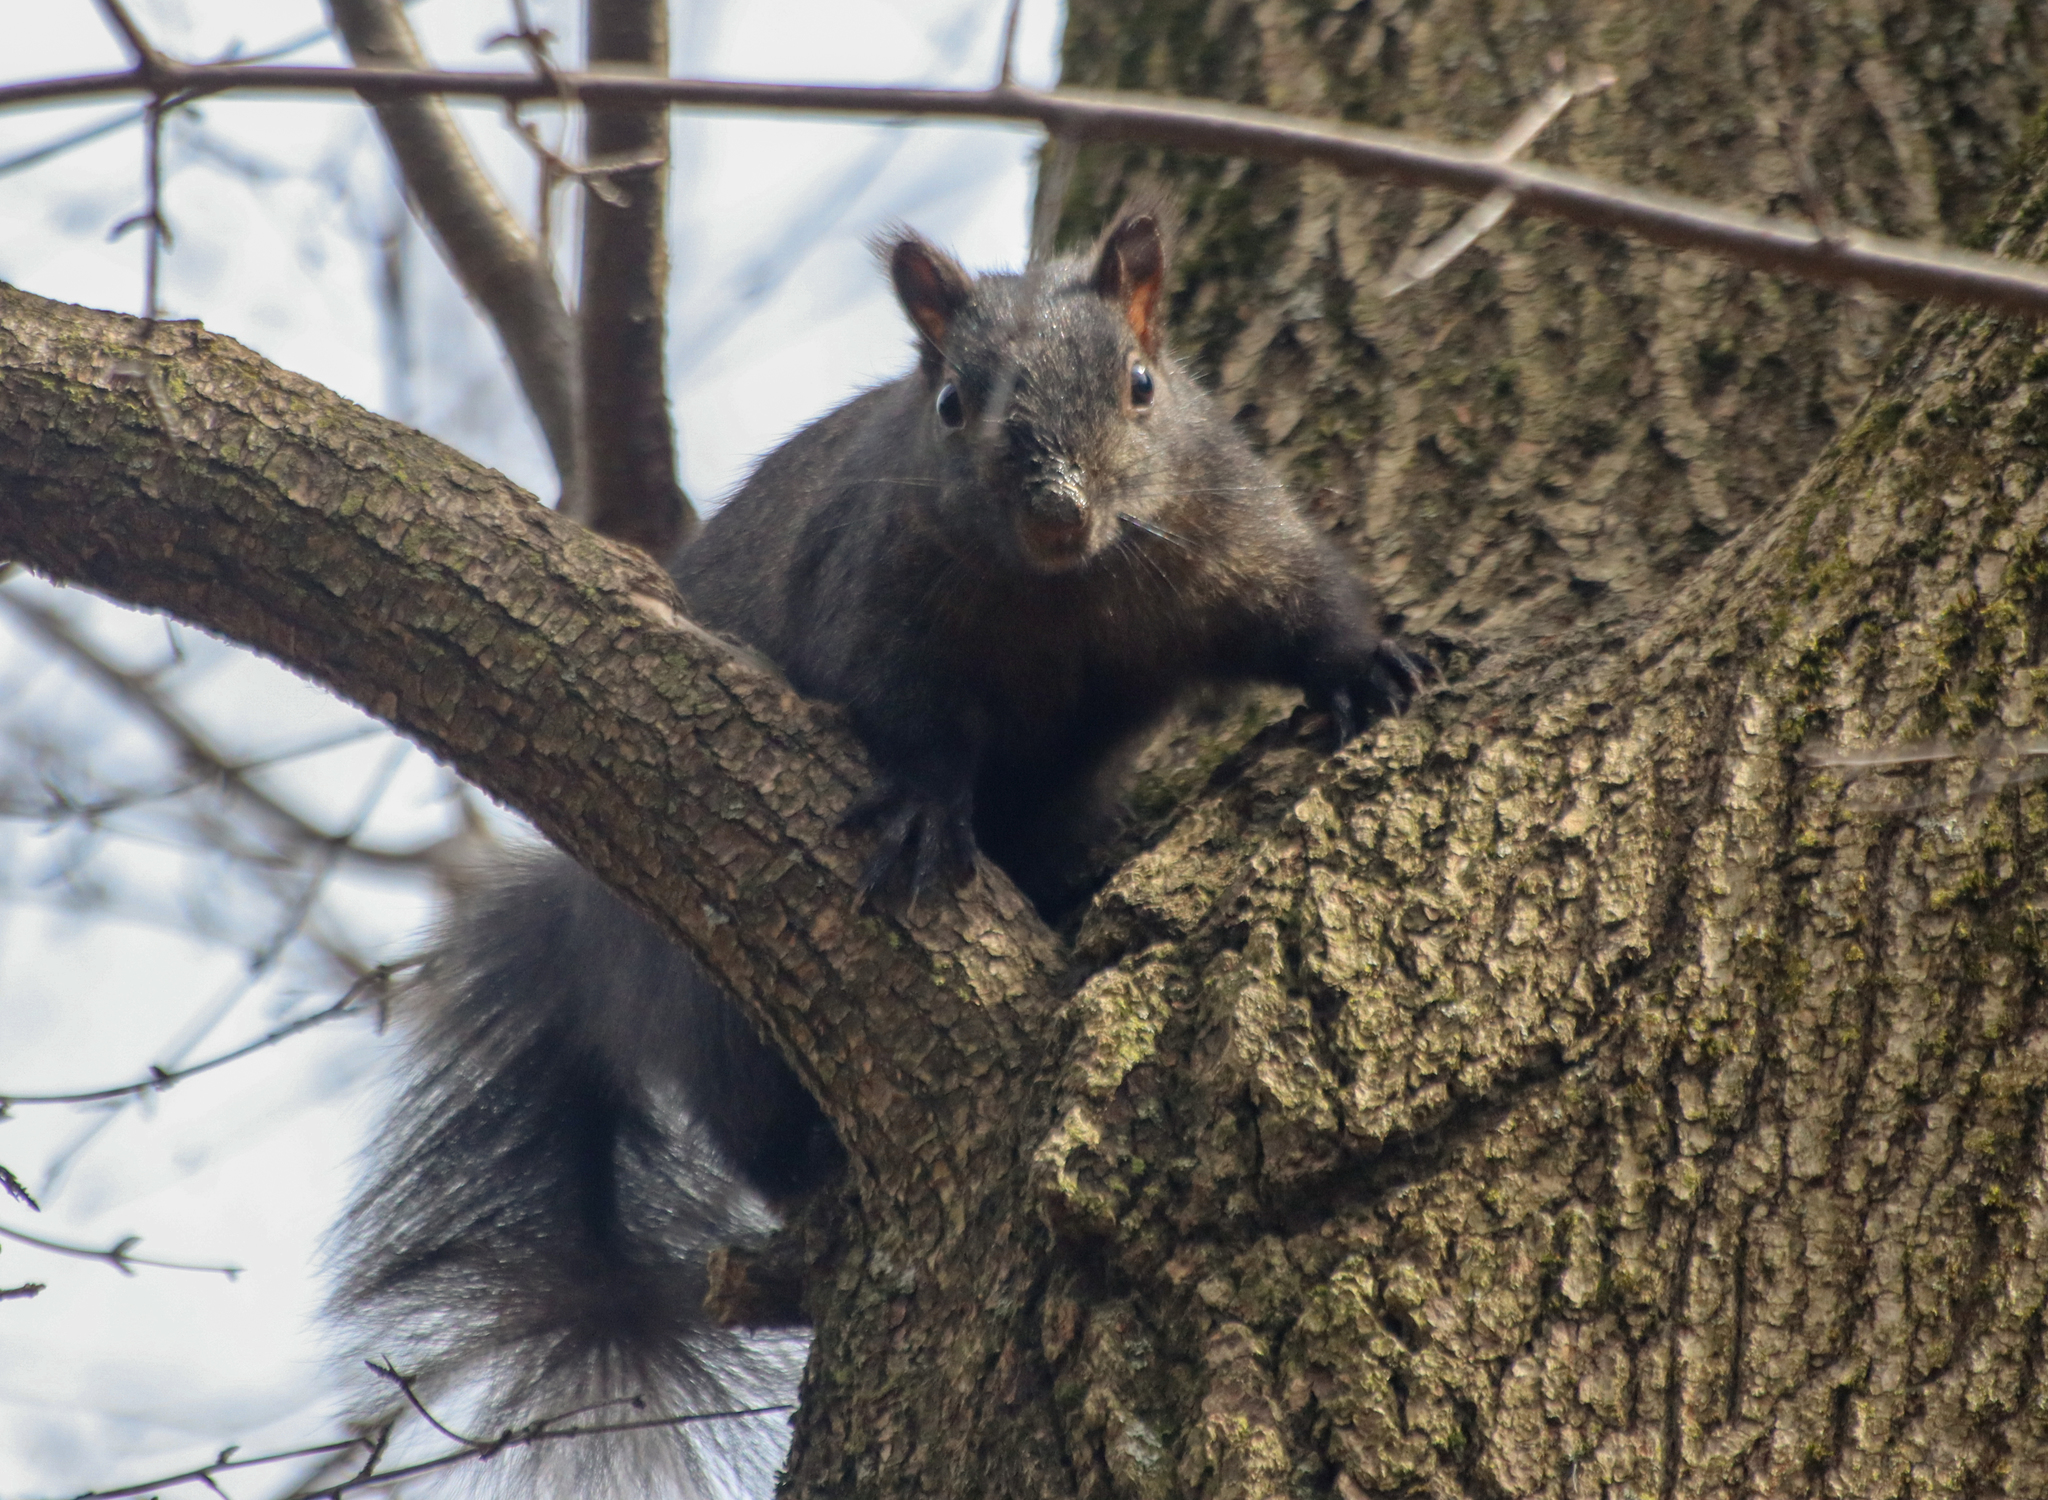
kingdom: Animalia
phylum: Chordata
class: Mammalia
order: Rodentia
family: Sciuridae
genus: Sciurus
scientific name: Sciurus carolinensis
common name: Eastern gray squirrel
